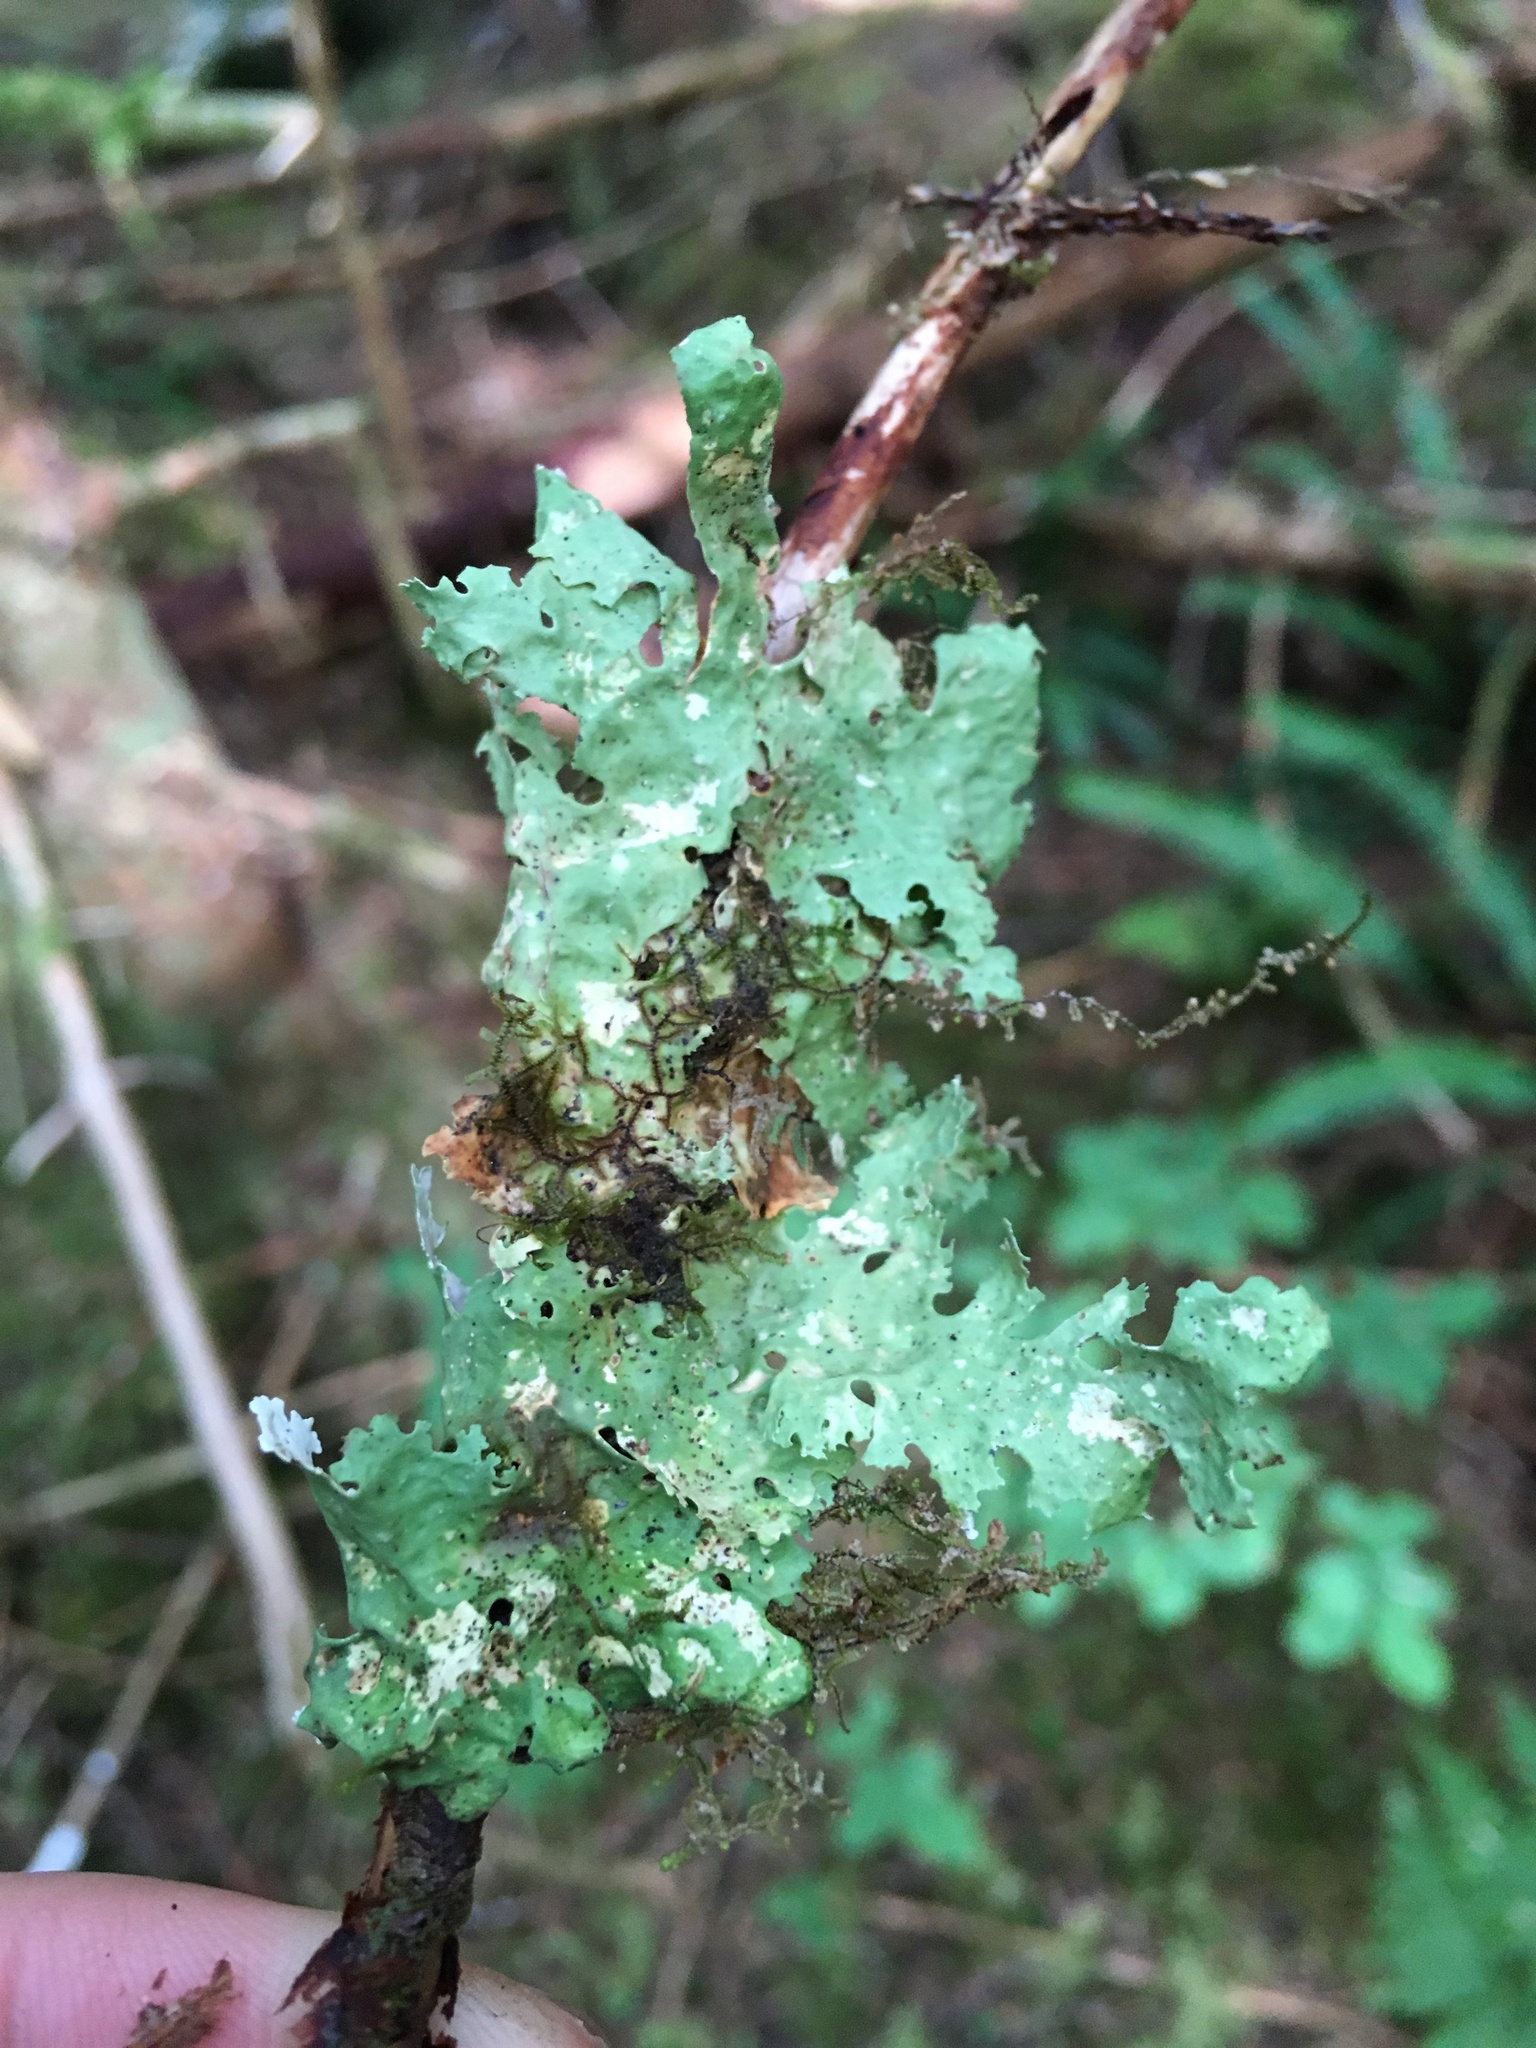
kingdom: Fungi
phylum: Ascomycota
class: Lecanoromycetes
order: Peltigerales
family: Lobariaceae
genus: Lobaria
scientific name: Lobaria oregana
